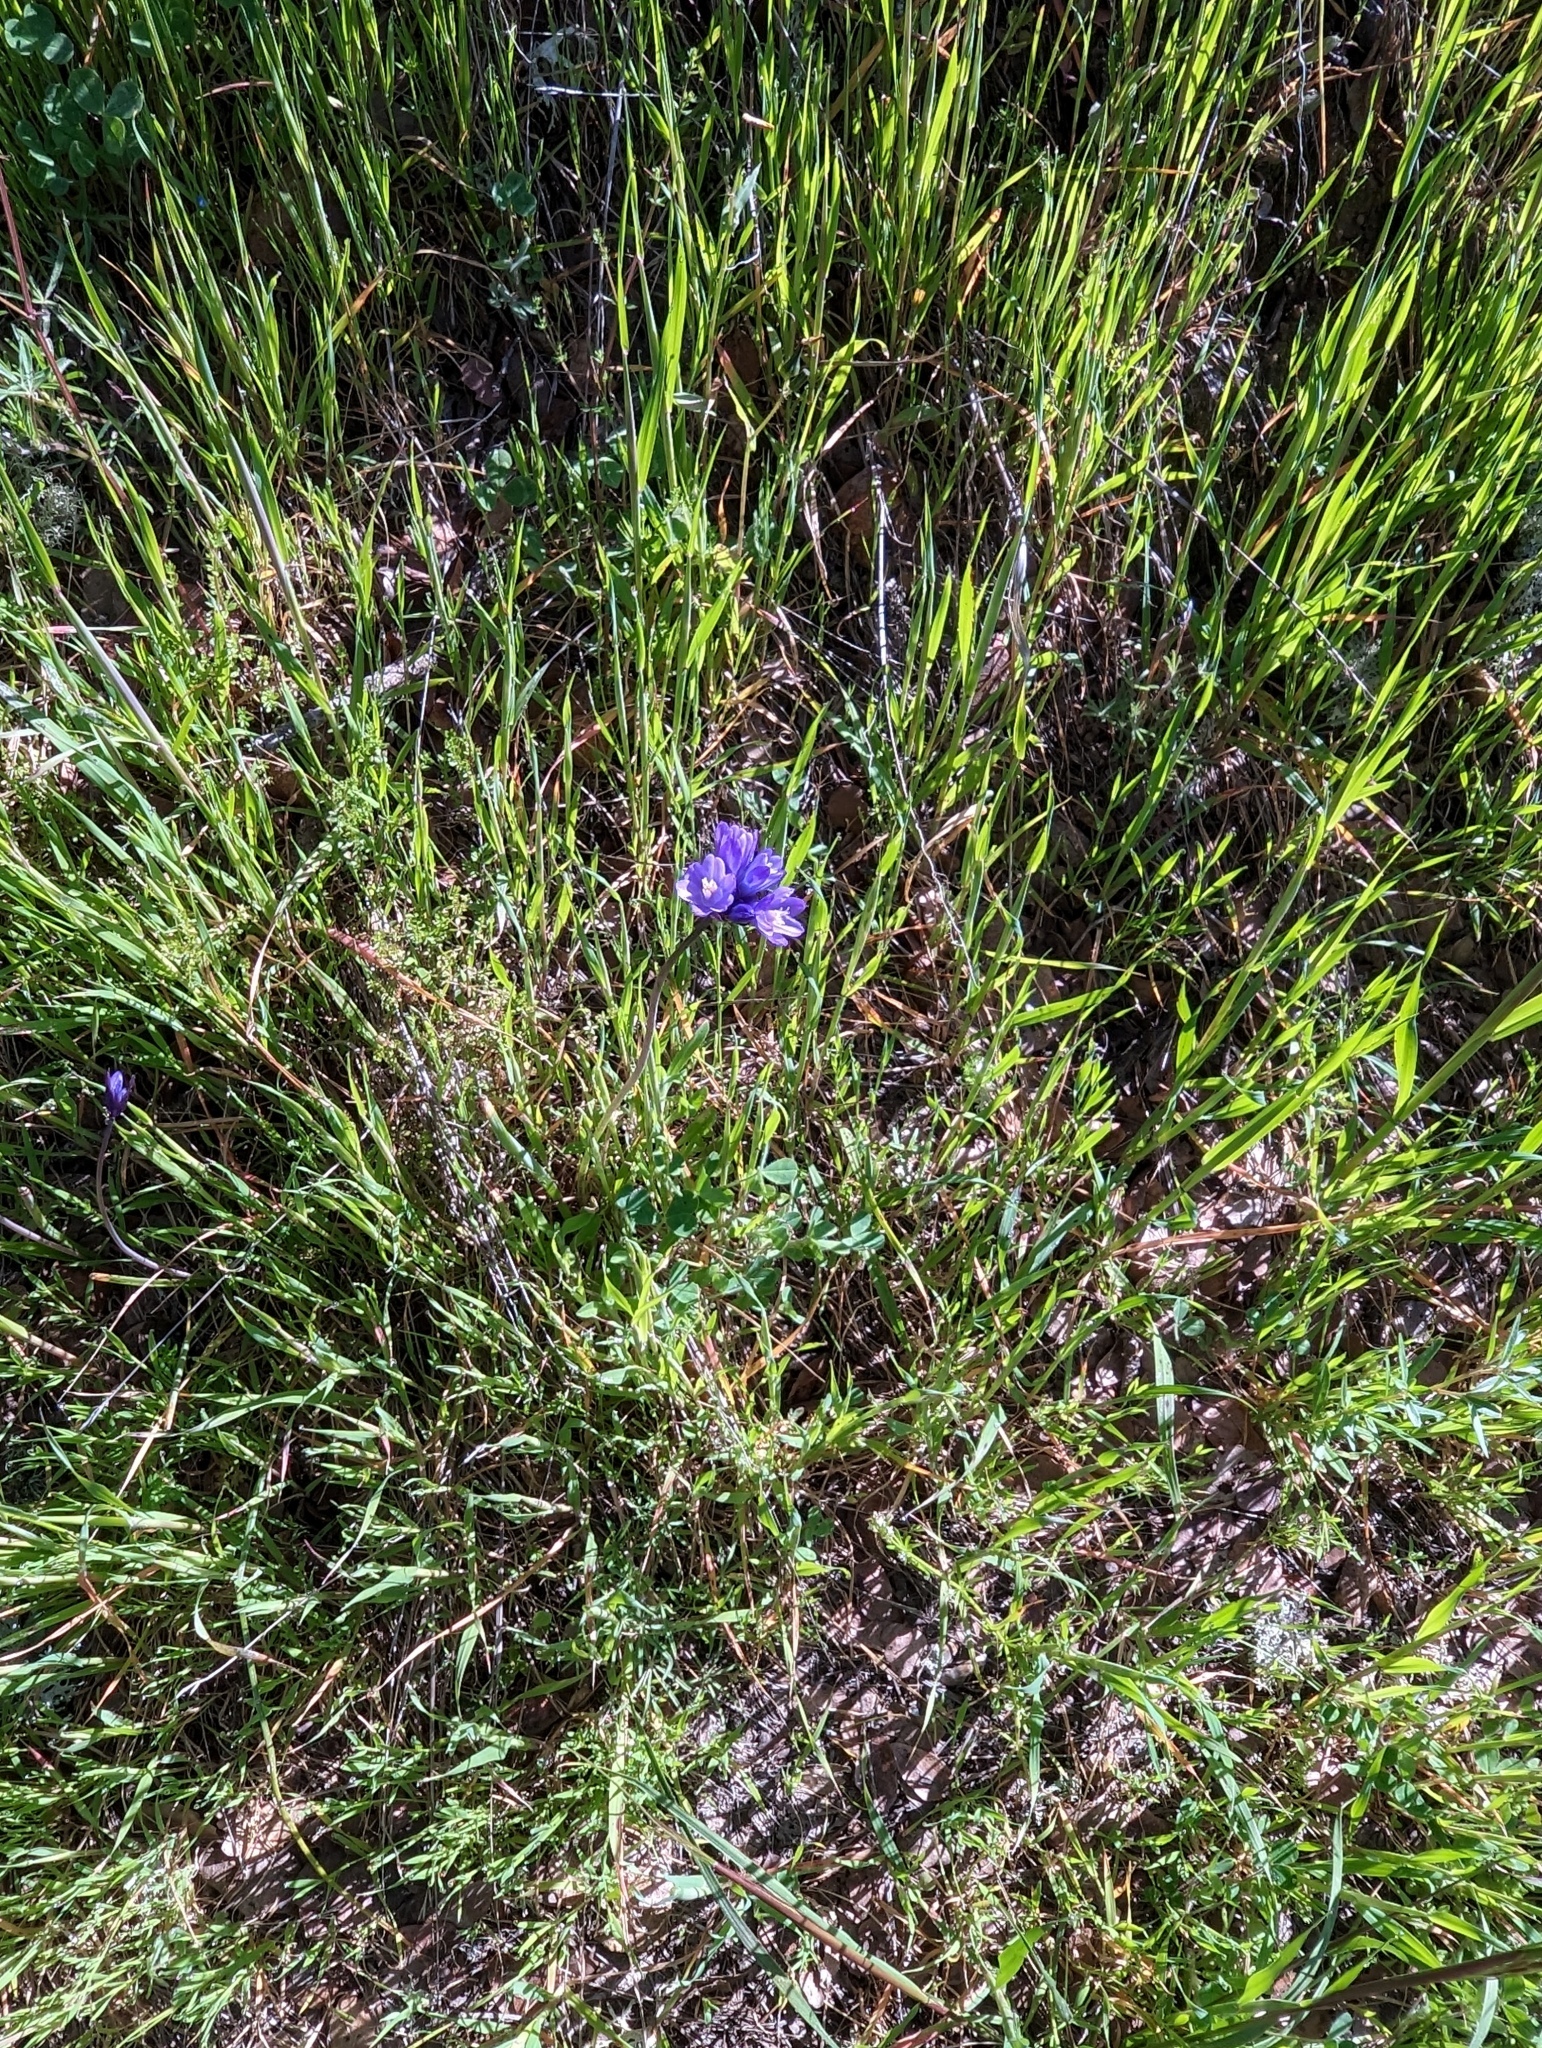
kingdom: Plantae
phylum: Tracheophyta
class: Liliopsida
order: Asparagales
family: Asparagaceae
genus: Dipterostemon
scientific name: Dipterostemon capitatus
